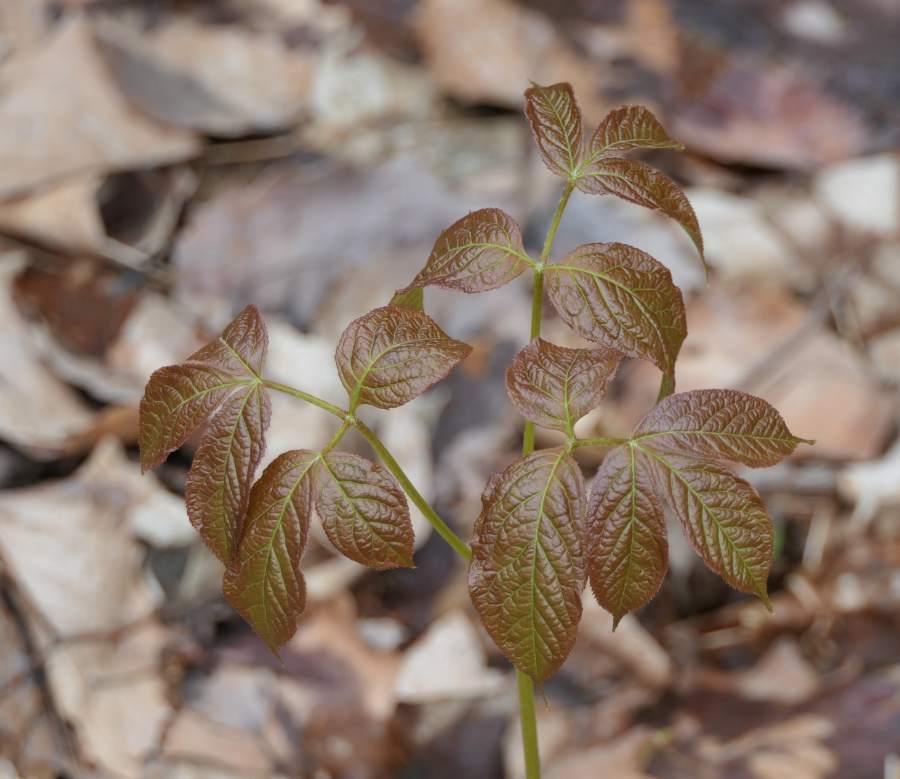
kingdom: Plantae
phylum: Tracheophyta
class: Magnoliopsida
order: Apiales
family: Araliaceae
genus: Aralia
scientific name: Aralia nudicaulis
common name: Wild sarsaparilla
